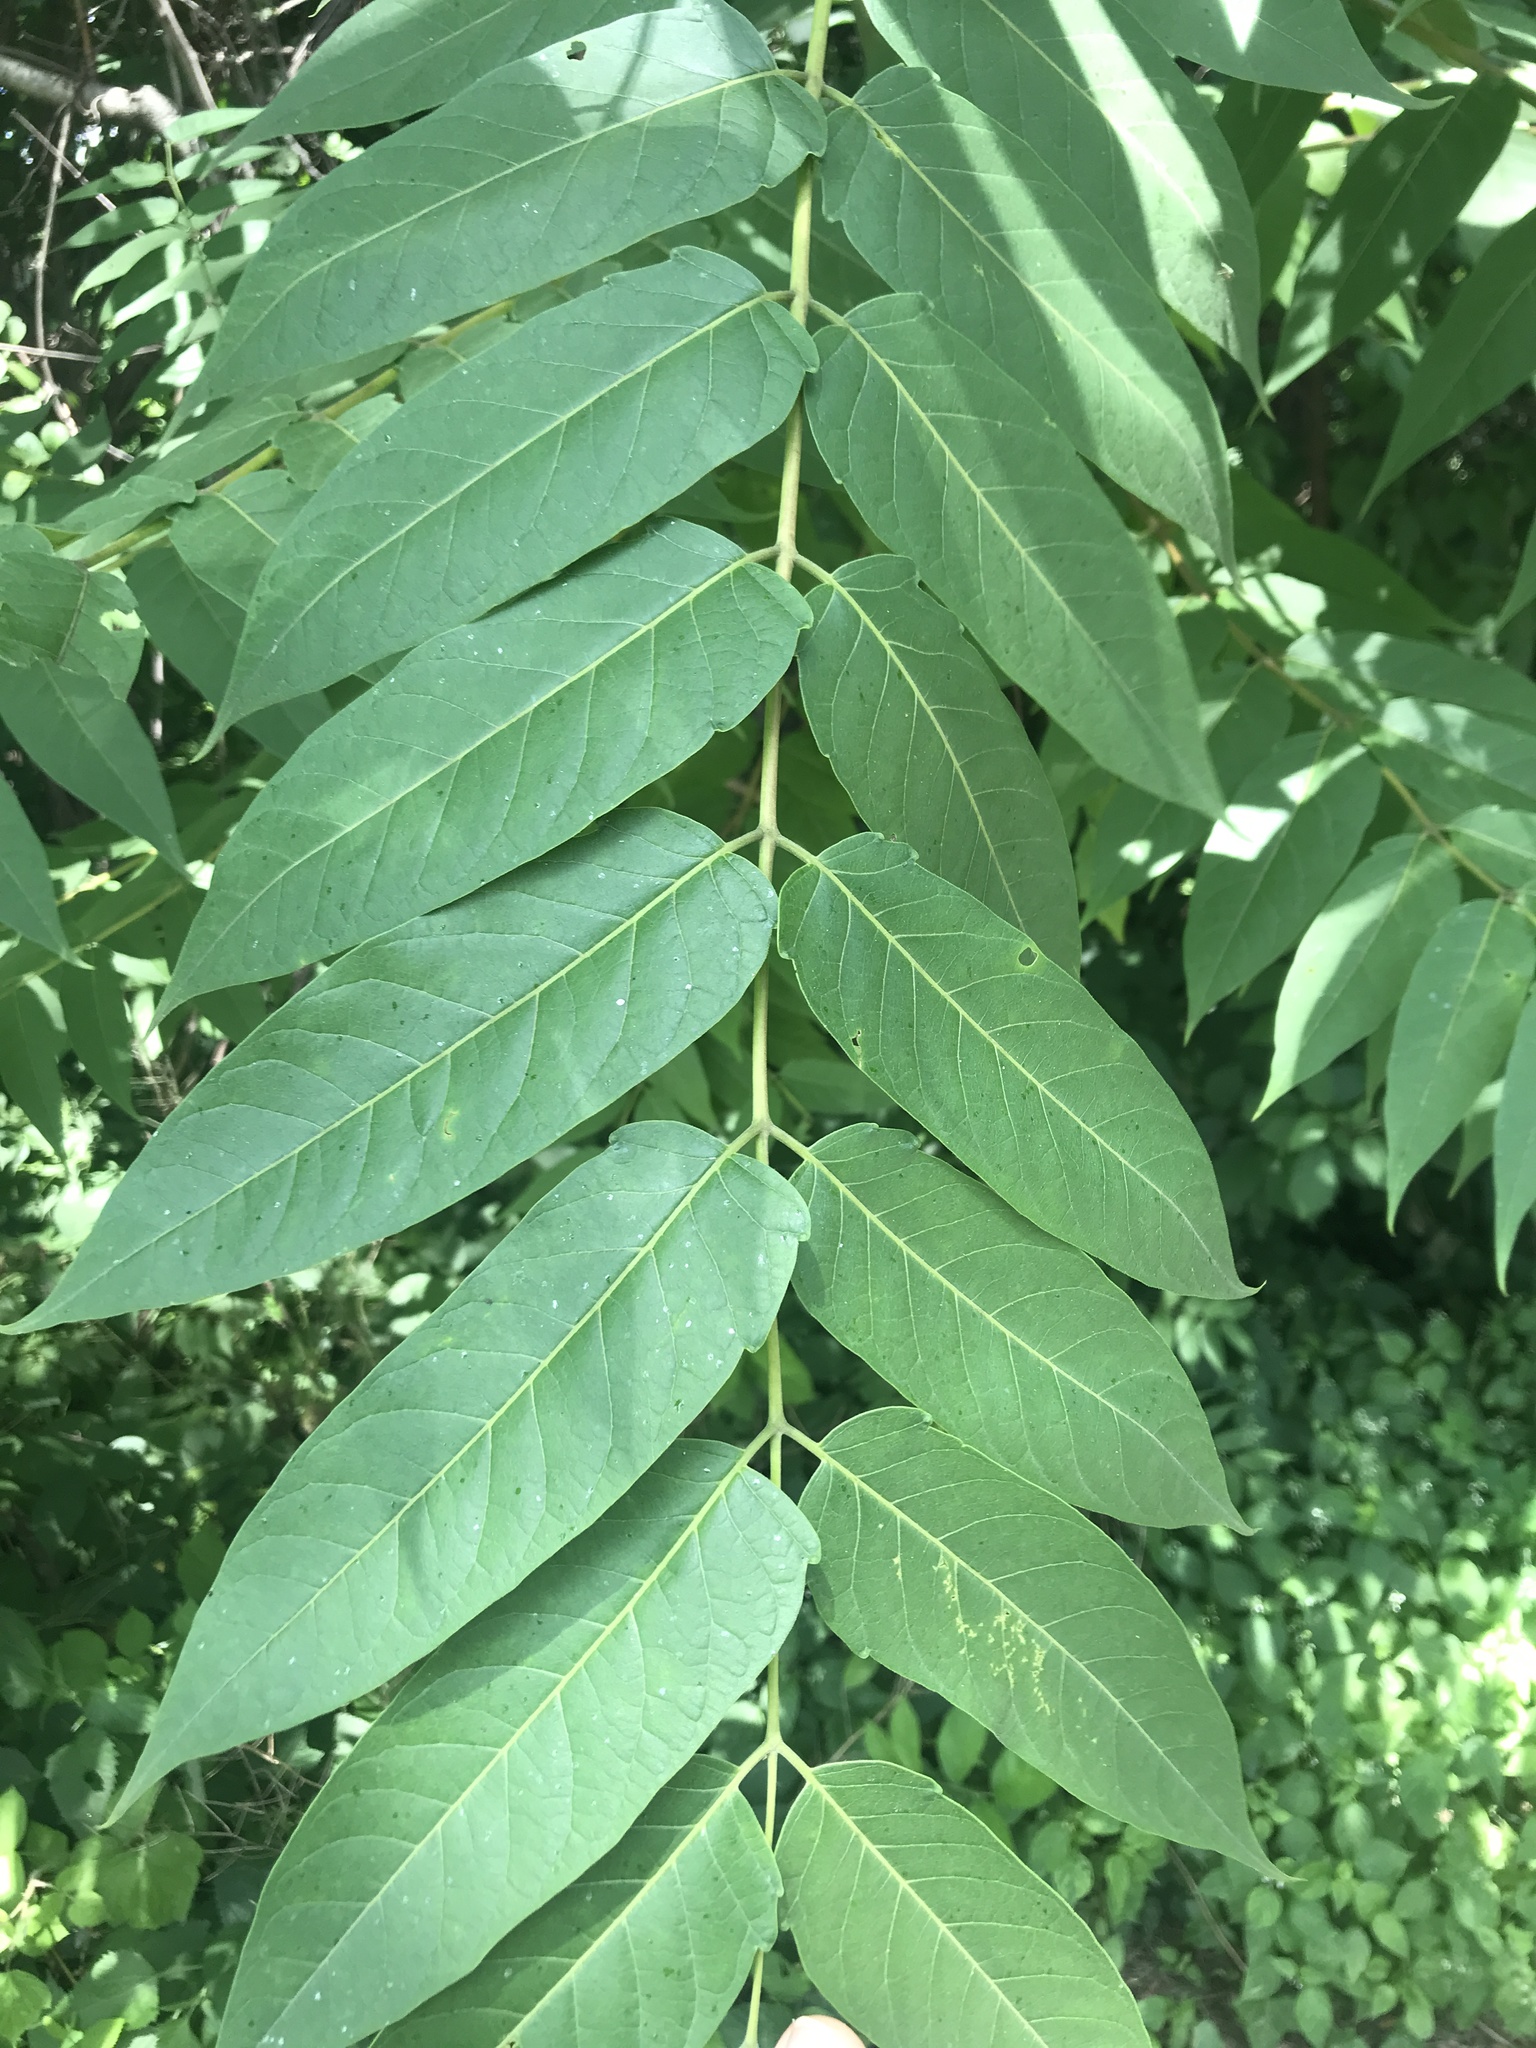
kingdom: Plantae
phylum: Tracheophyta
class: Magnoliopsida
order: Sapindales
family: Simaroubaceae
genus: Ailanthus
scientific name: Ailanthus altissima
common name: Tree-of-heaven
